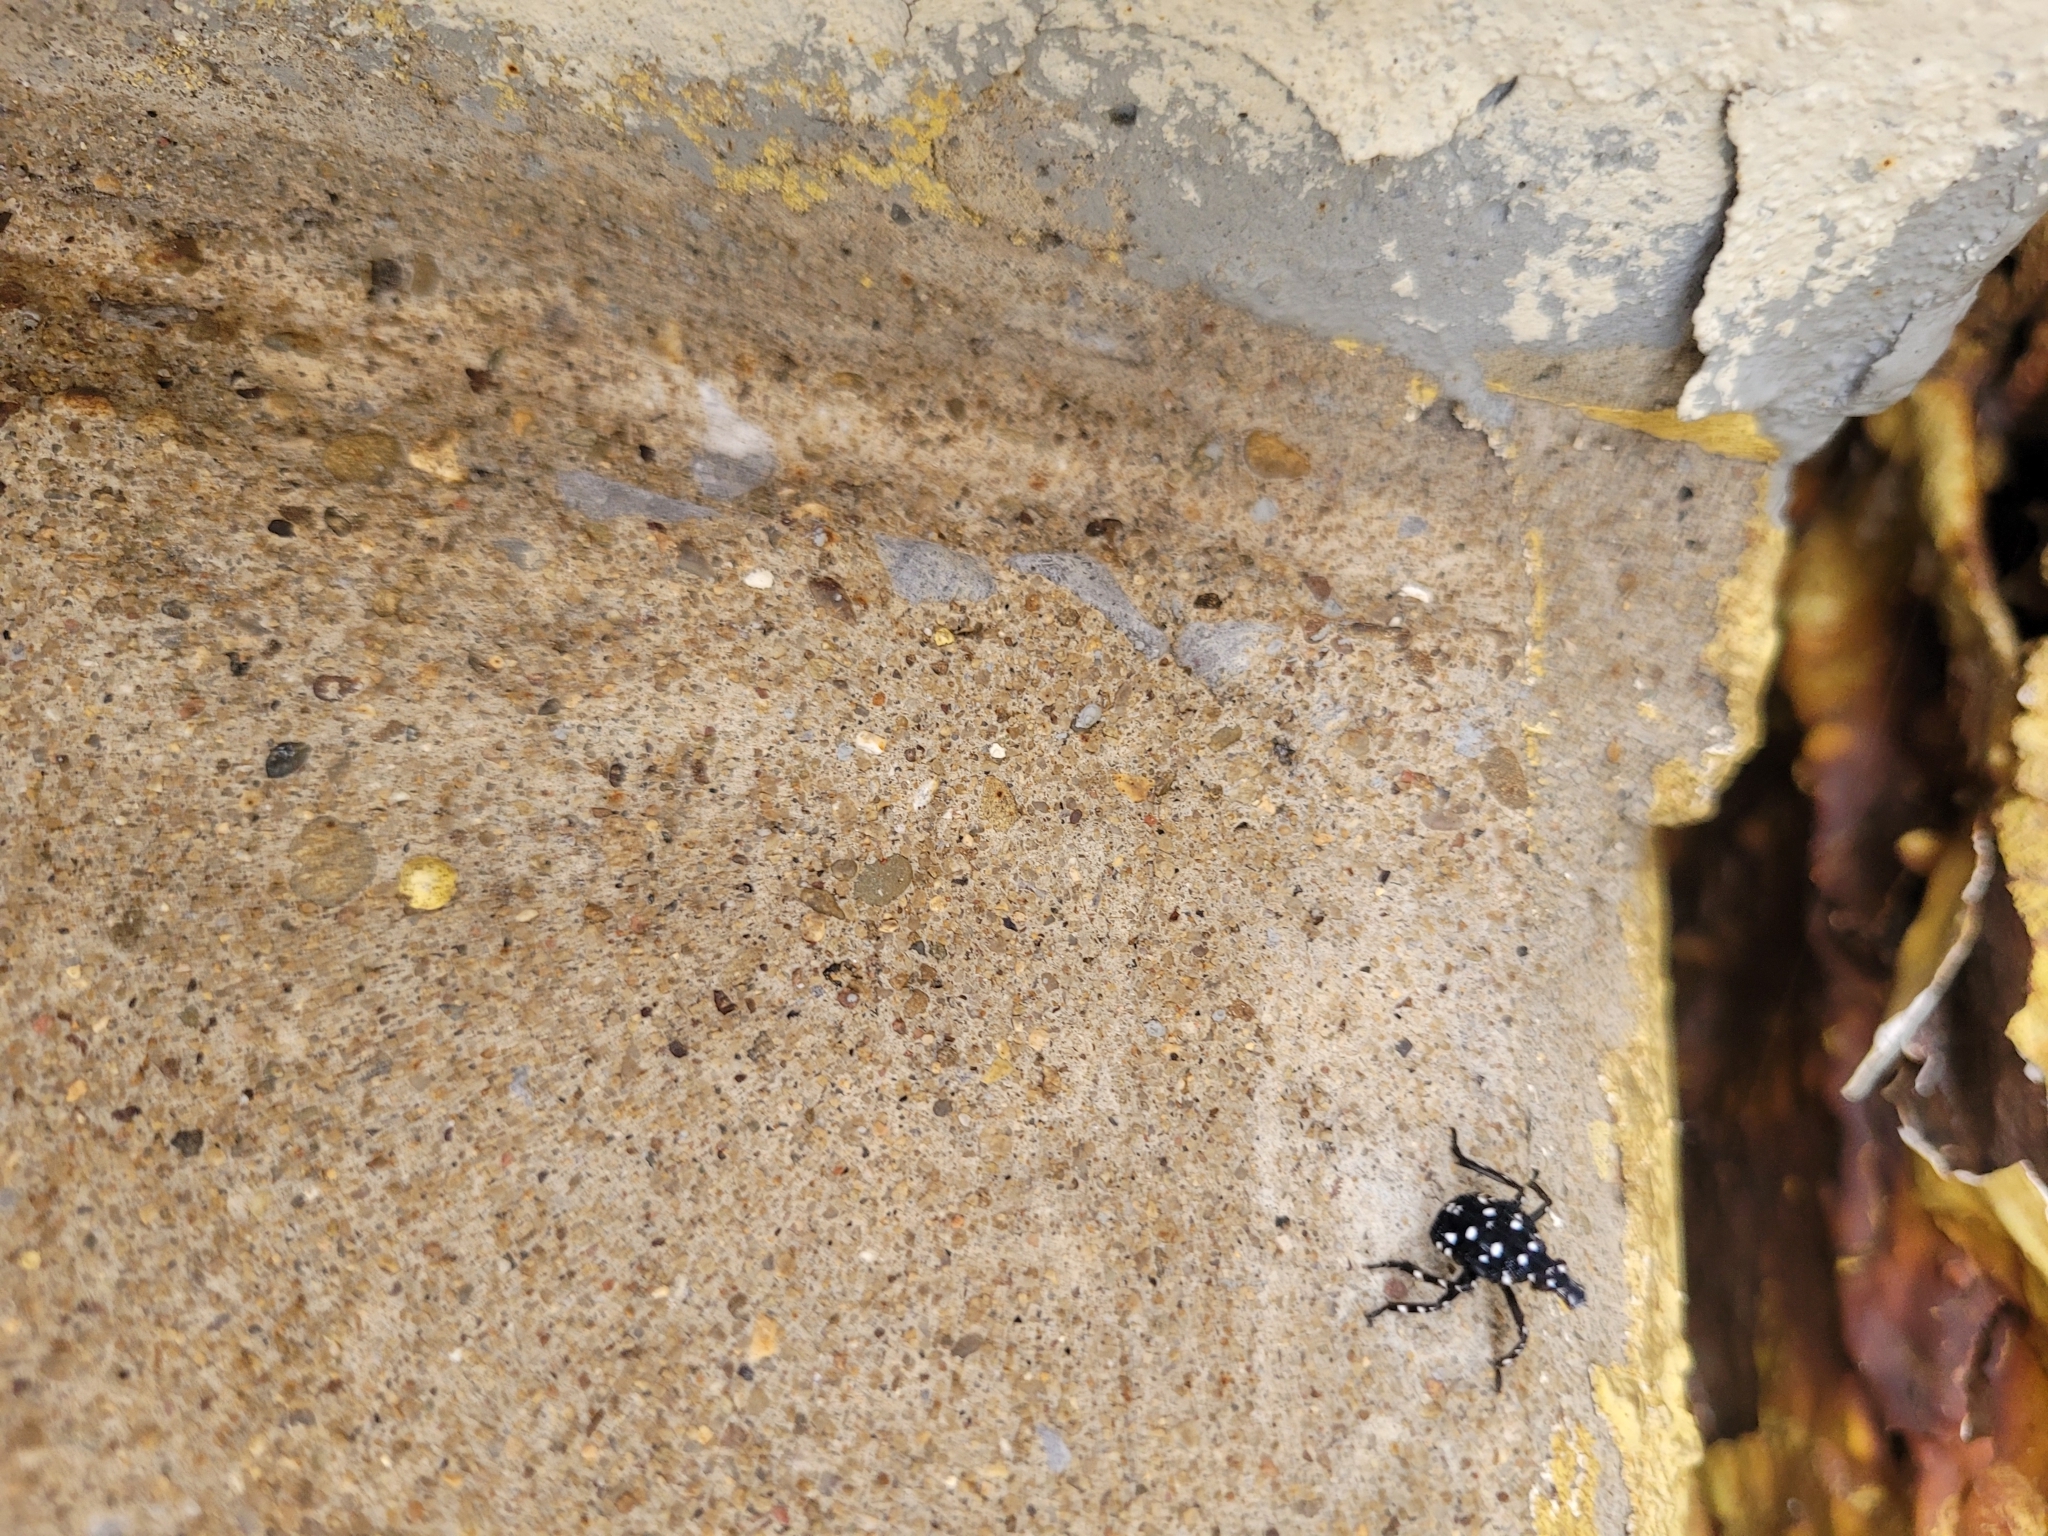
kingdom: Animalia
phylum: Arthropoda
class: Insecta
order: Hemiptera
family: Fulgoridae
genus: Lycorma
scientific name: Lycorma delicatula
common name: Spotted lanternfly
